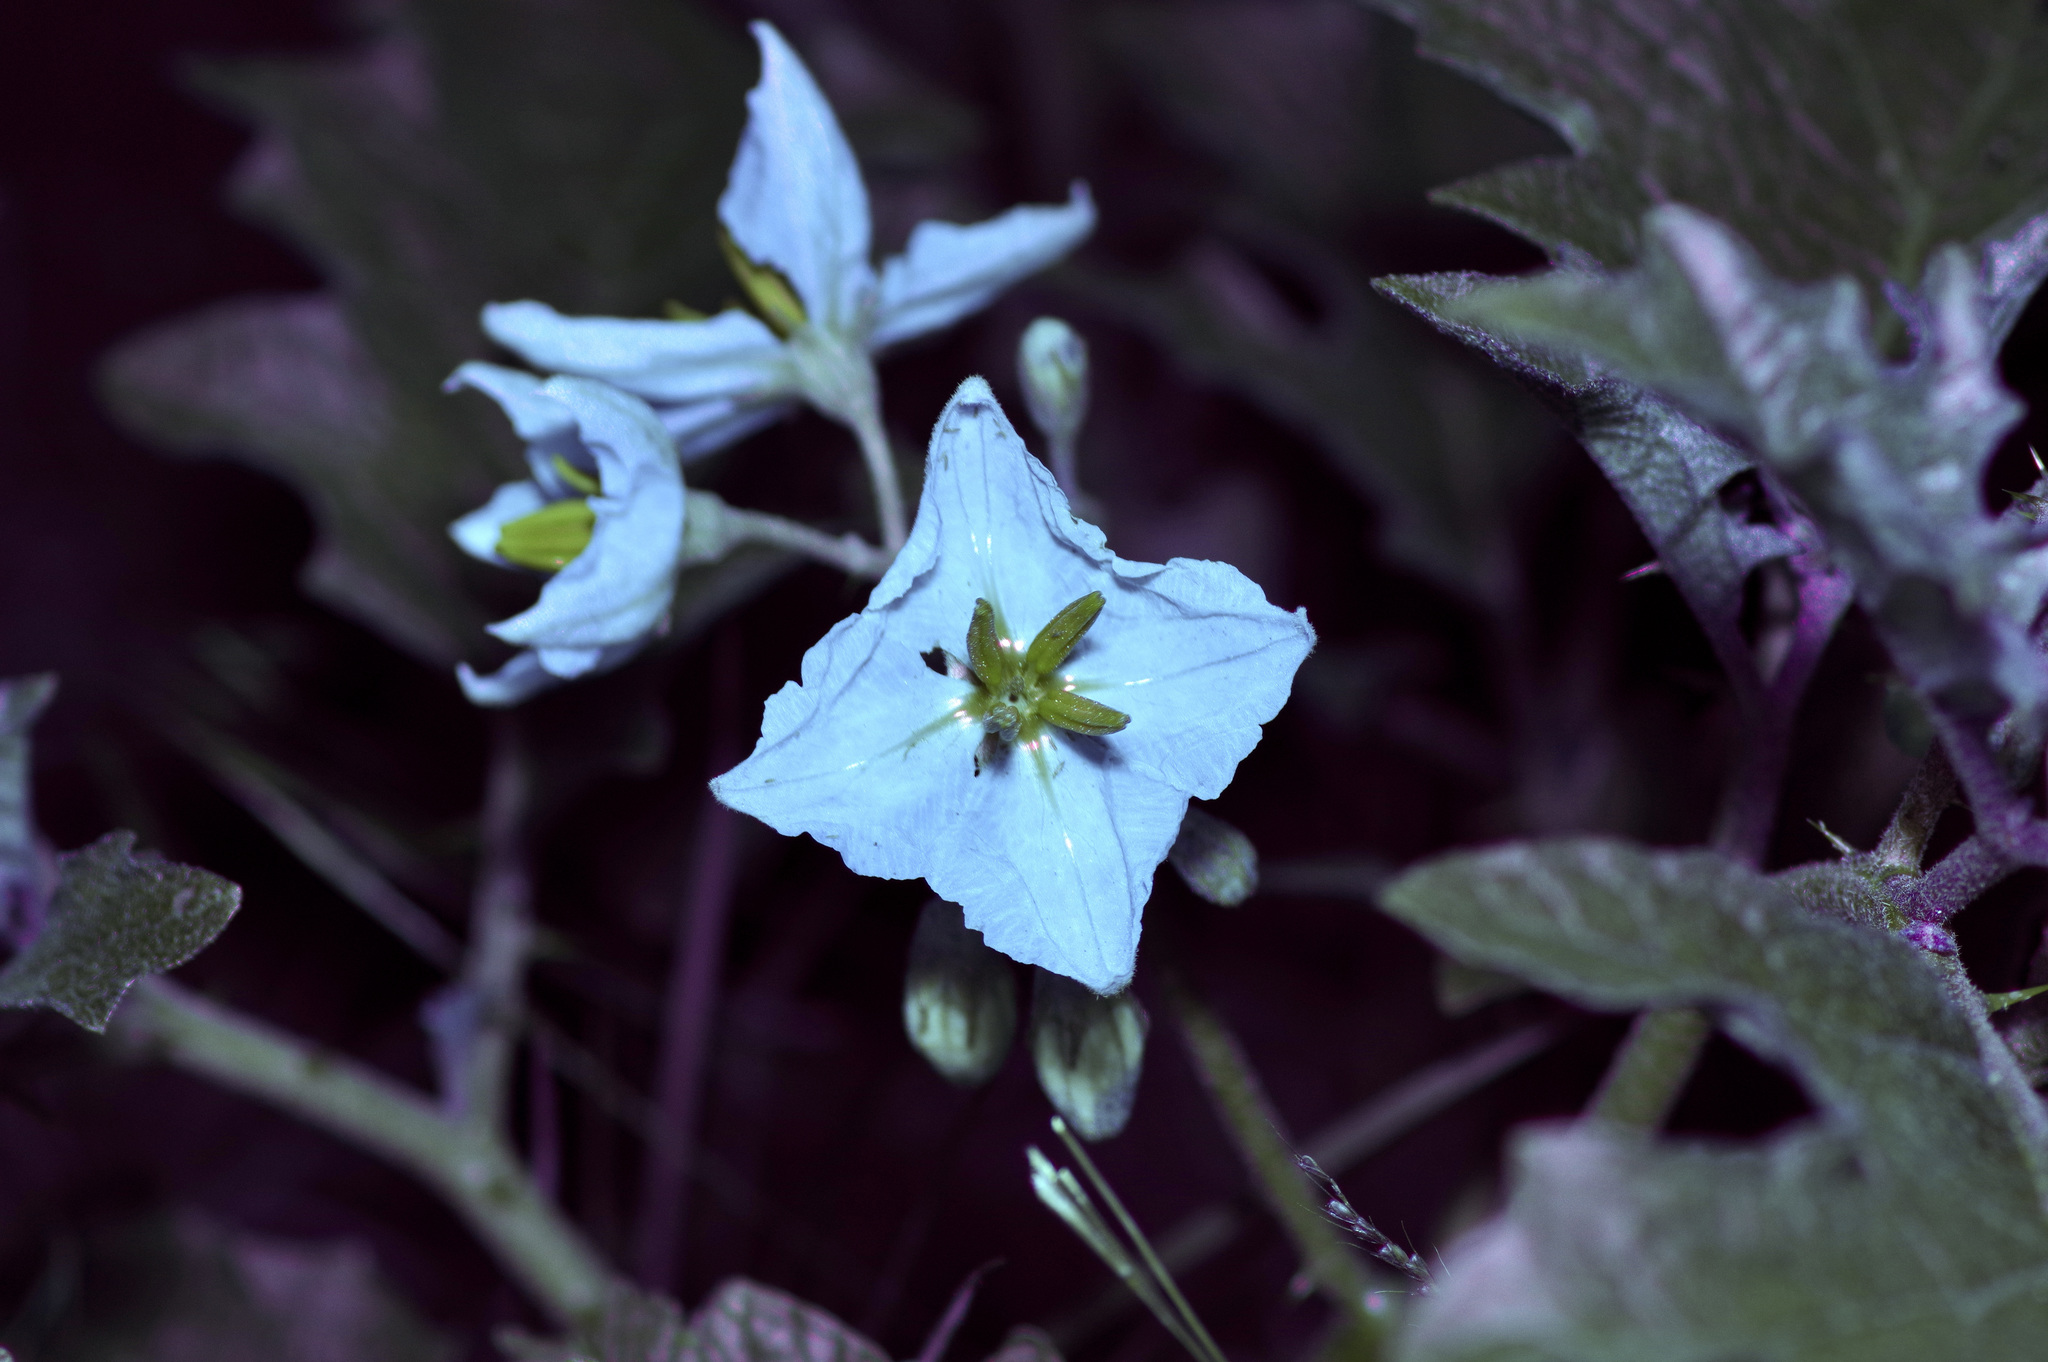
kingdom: Plantae
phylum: Tracheophyta
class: Magnoliopsida
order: Solanales
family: Solanaceae
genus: Solanum
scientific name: Solanum dimidiatum
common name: Carolina horse-nettle
